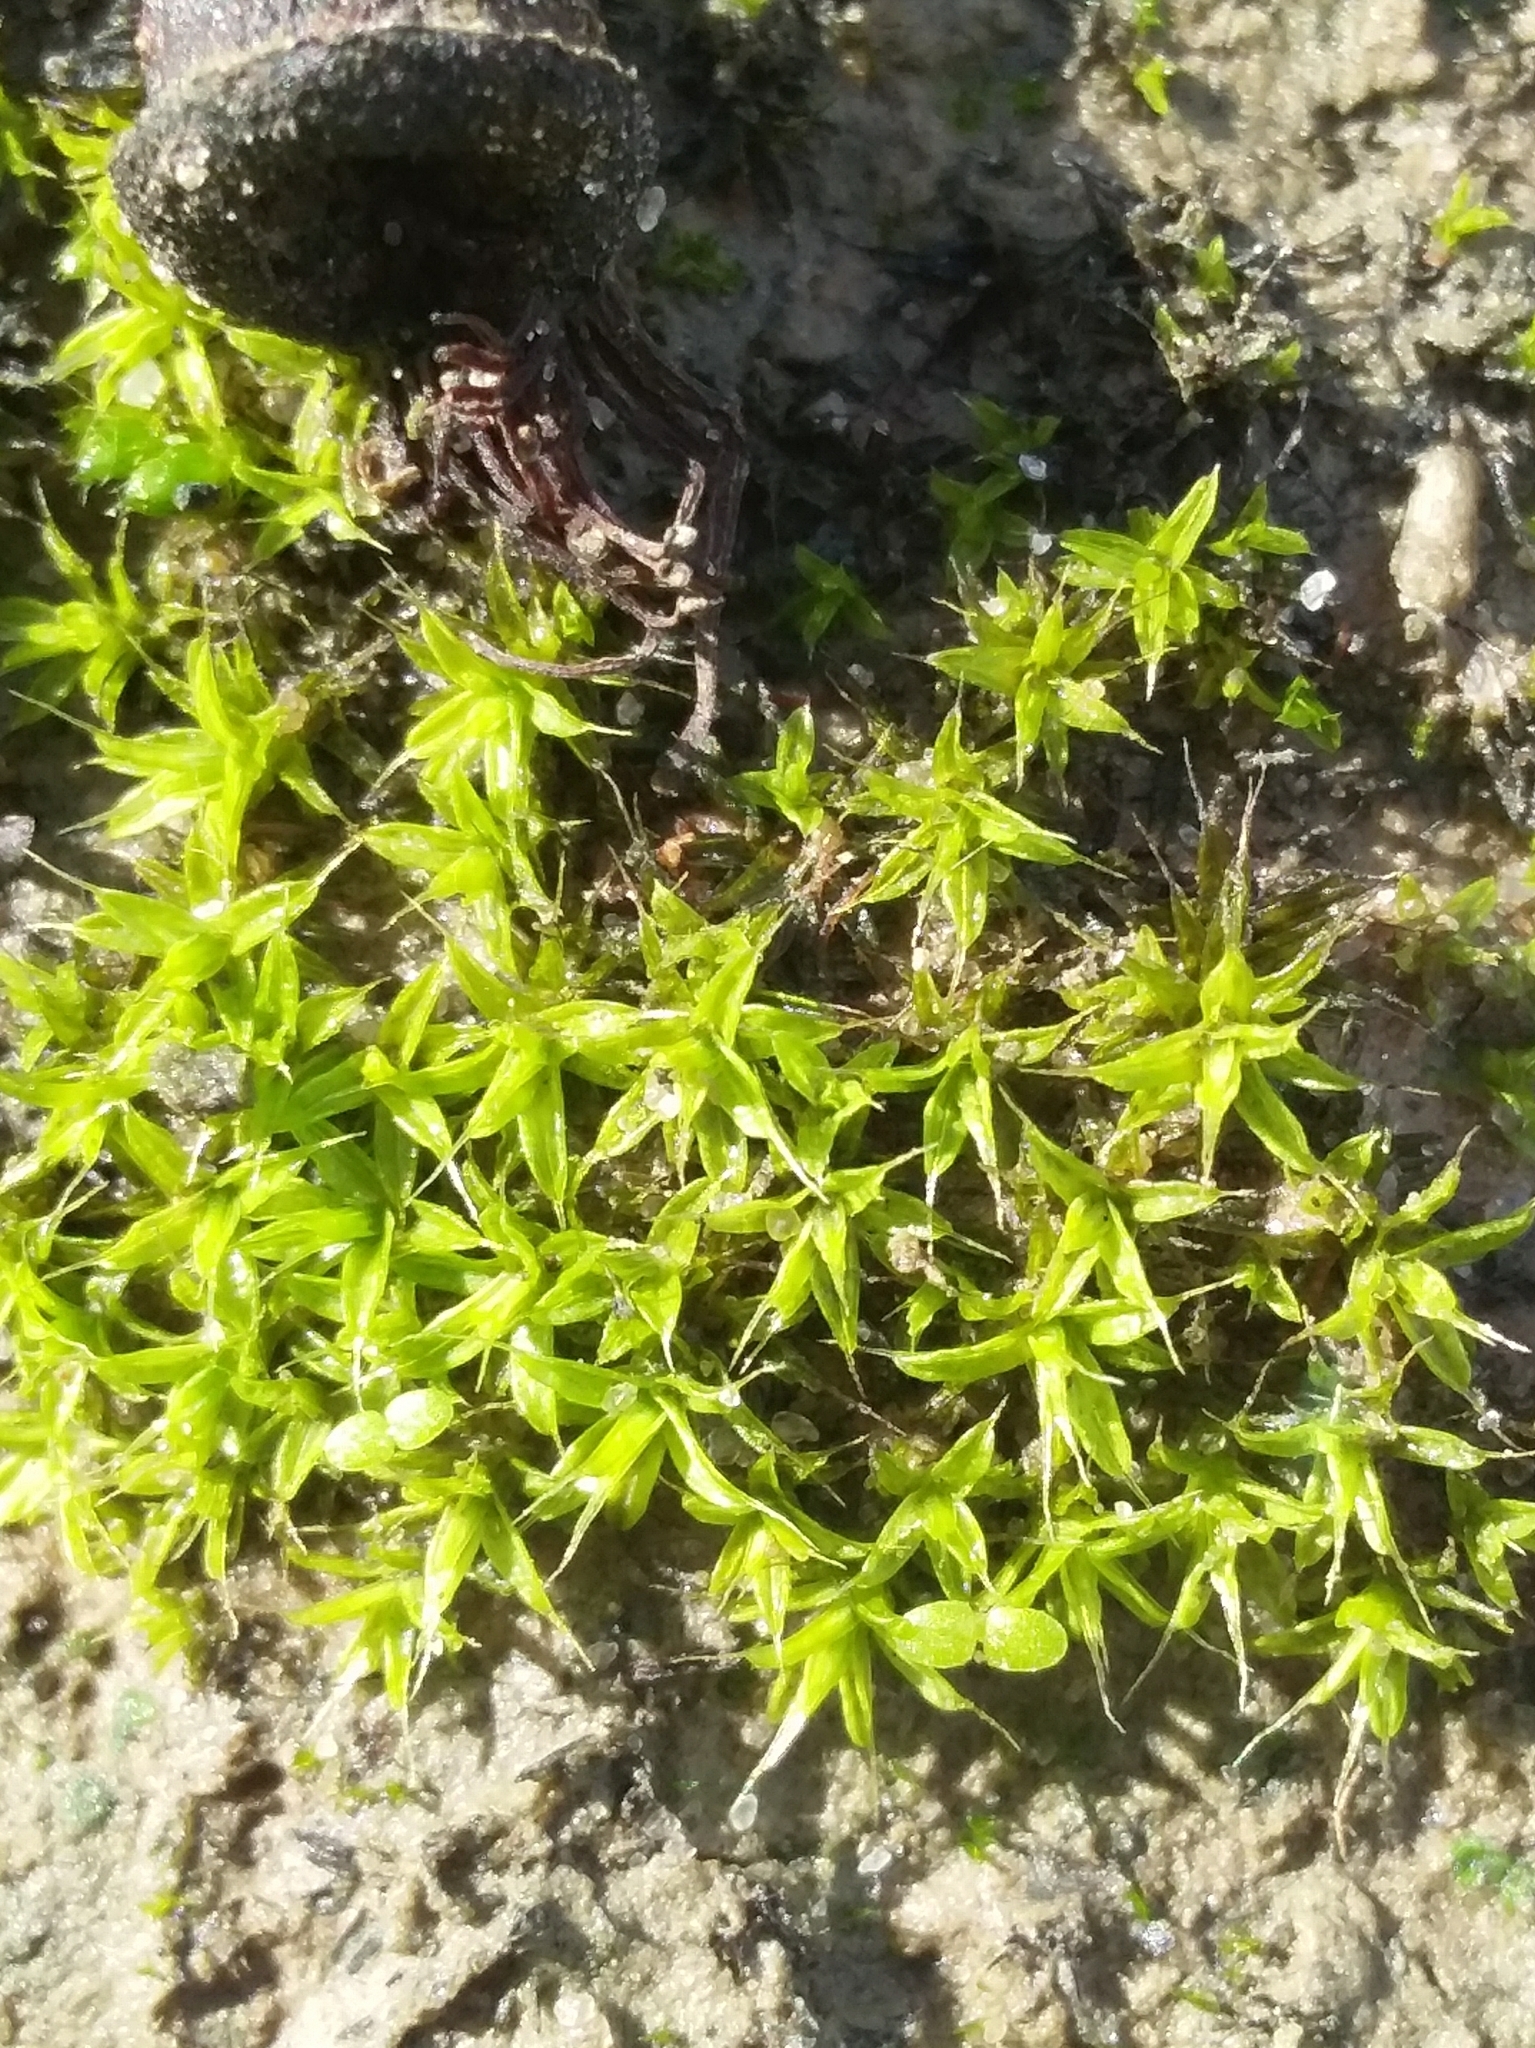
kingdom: Plantae
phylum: Bryophyta
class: Bryopsida
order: Pottiales
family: Pottiaceae
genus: Syntrichia
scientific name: Syntrichia antarctica
